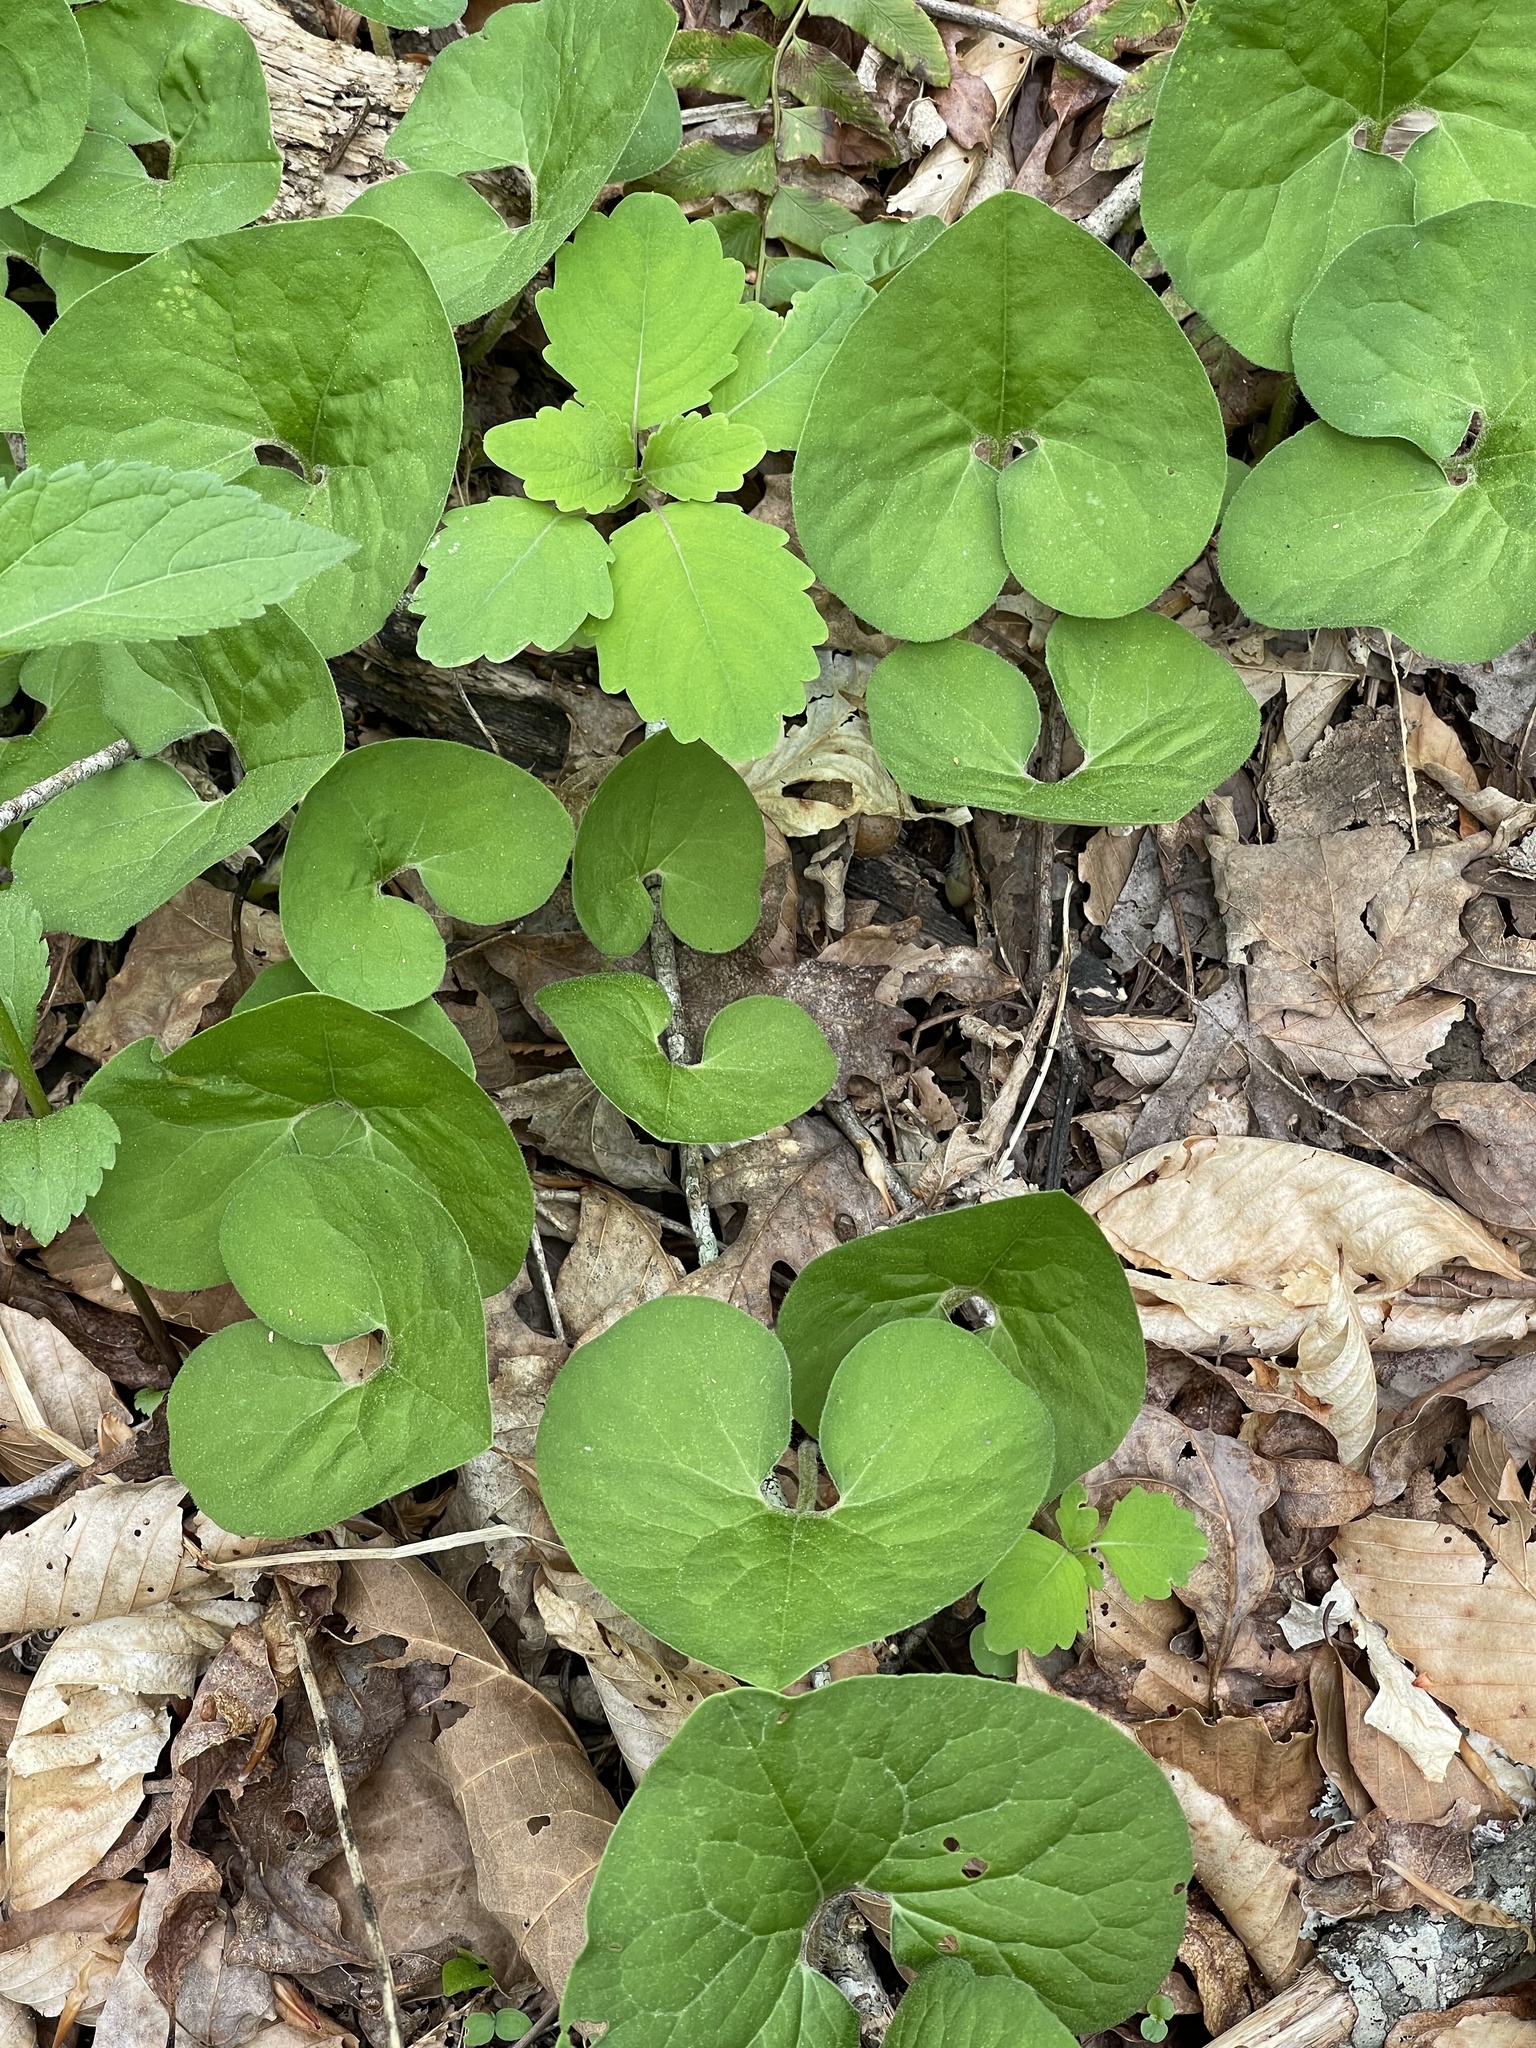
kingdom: Plantae
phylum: Tracheophyta
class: Magnoliopsida
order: Piperales
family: Aristolochiaceae
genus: Asarum
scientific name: Asarum canadense
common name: Wild ginger
